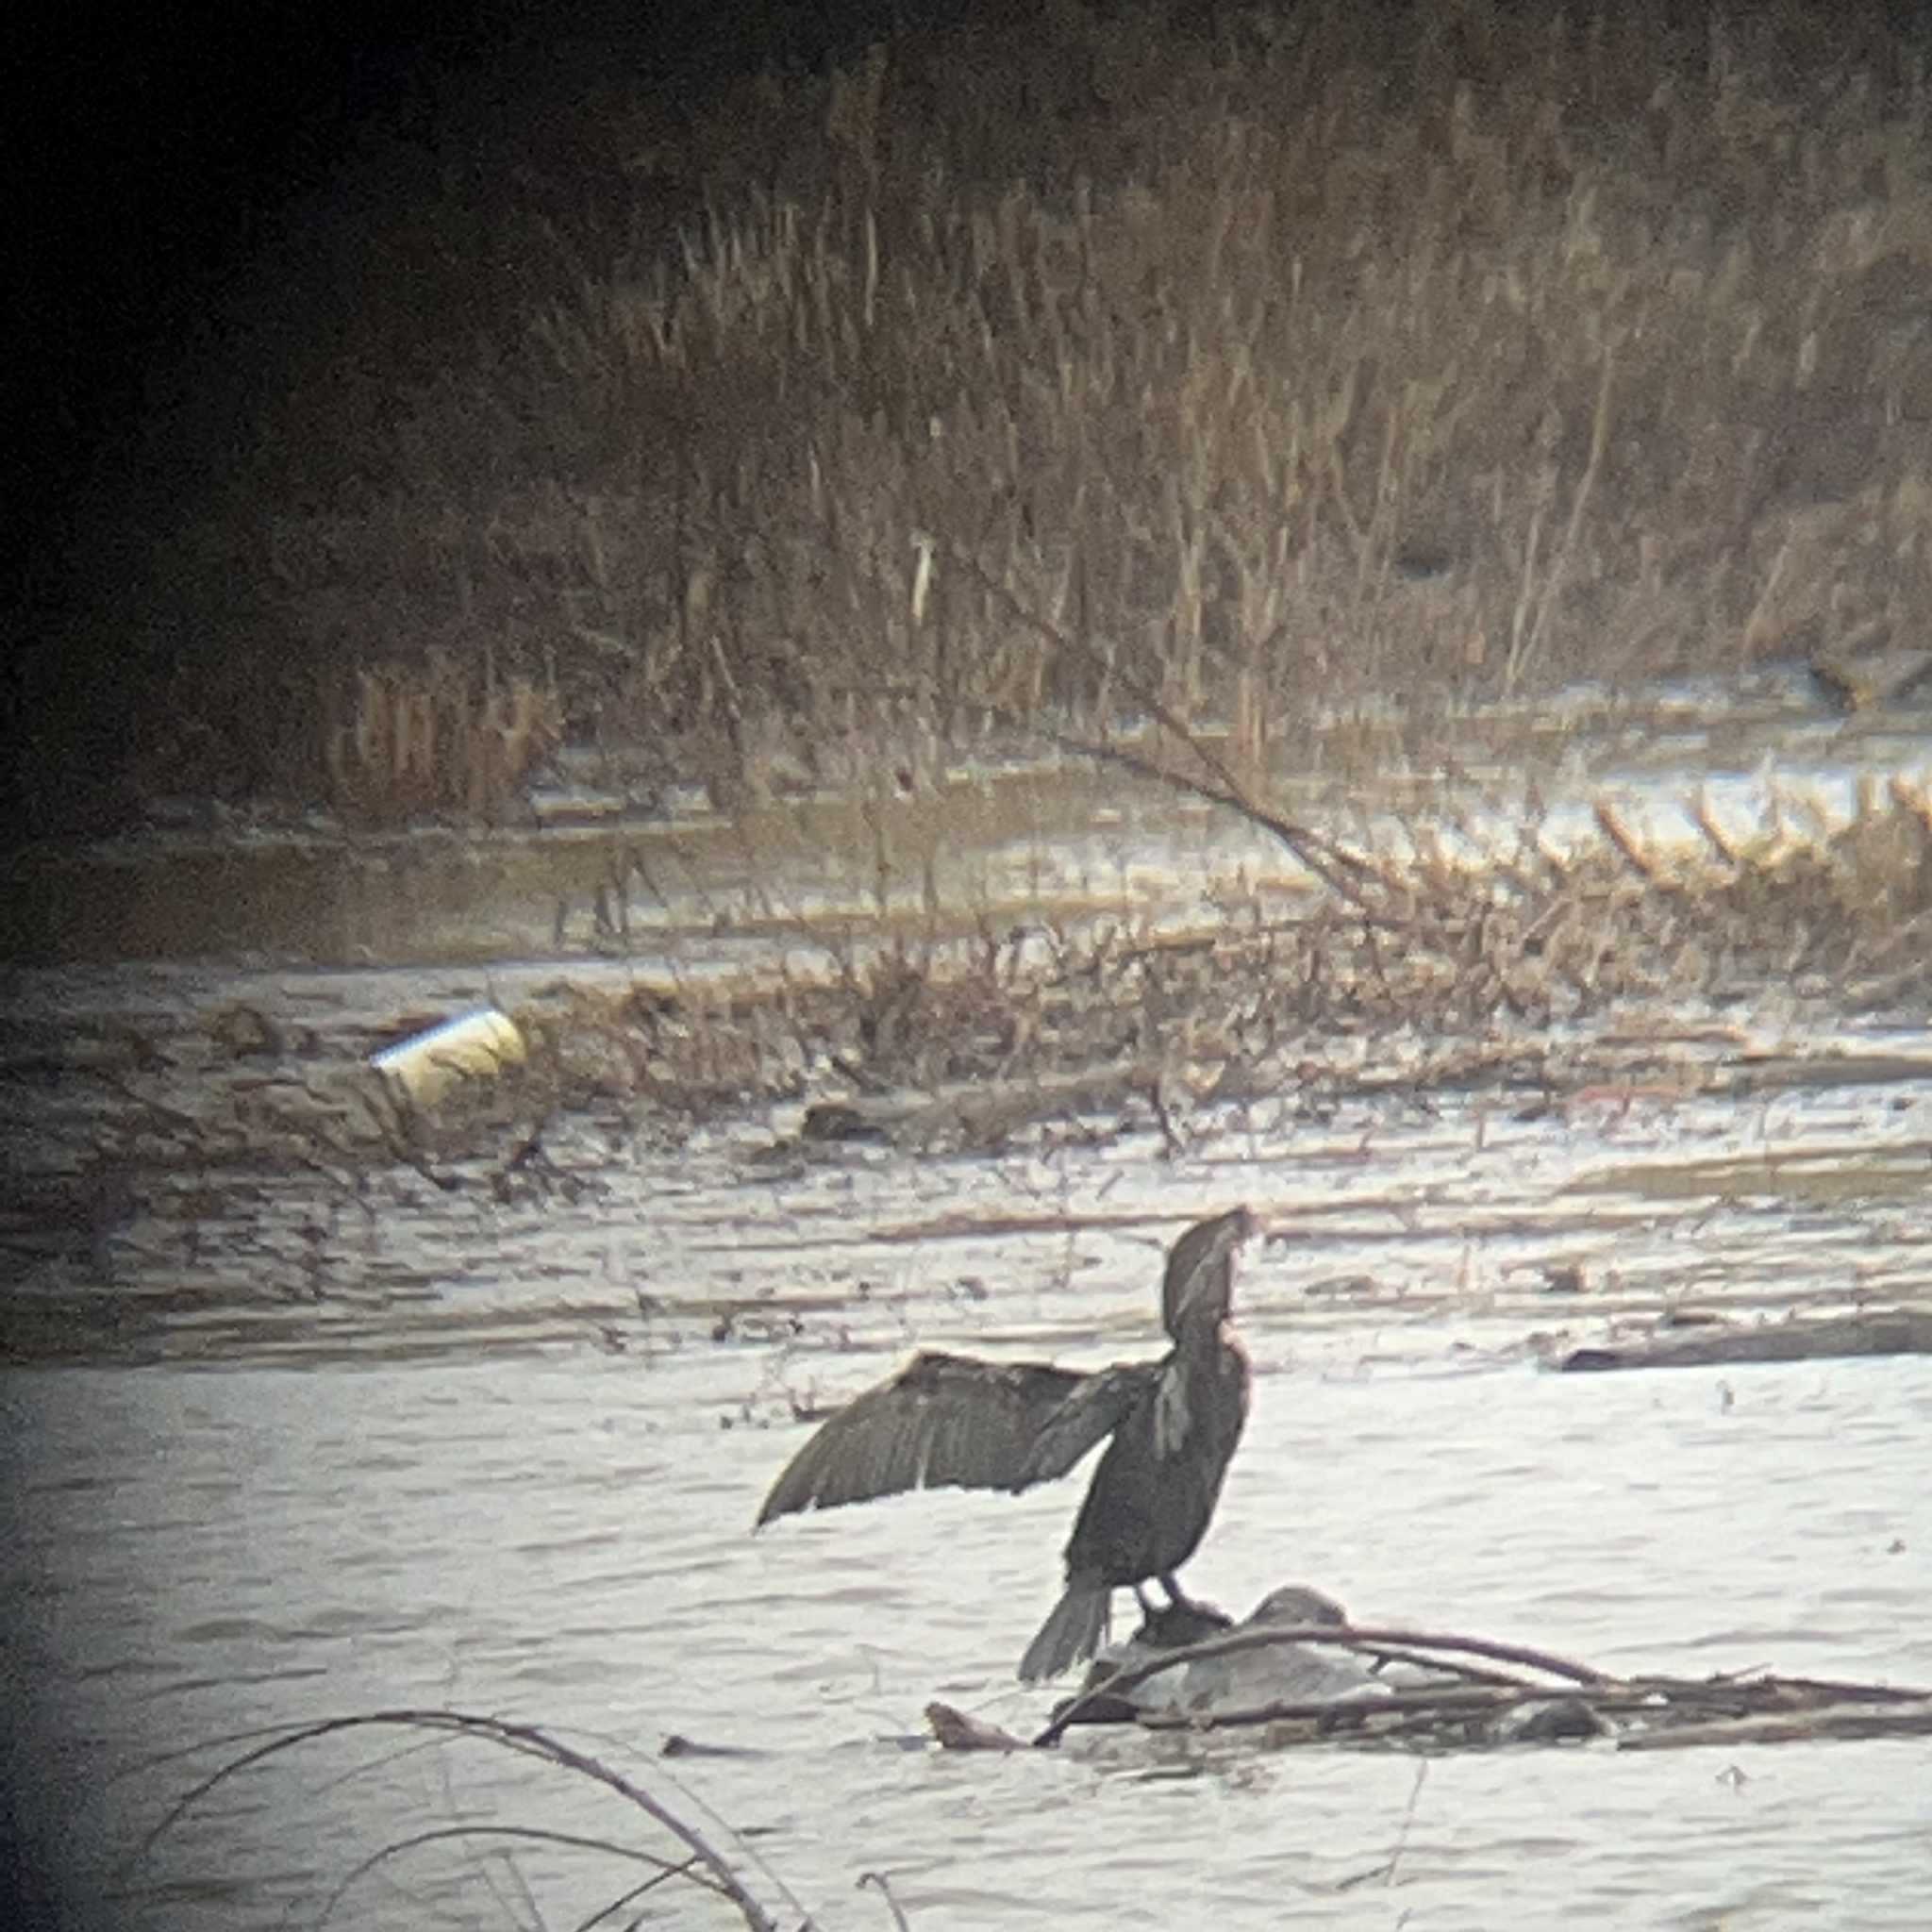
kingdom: Animalia
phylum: Chordata
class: Aves
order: Suliformes
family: Phalacrocoracidae
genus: Phalacrocorax
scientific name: Phalacrocorax auritus
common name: Double-crested cormorant
